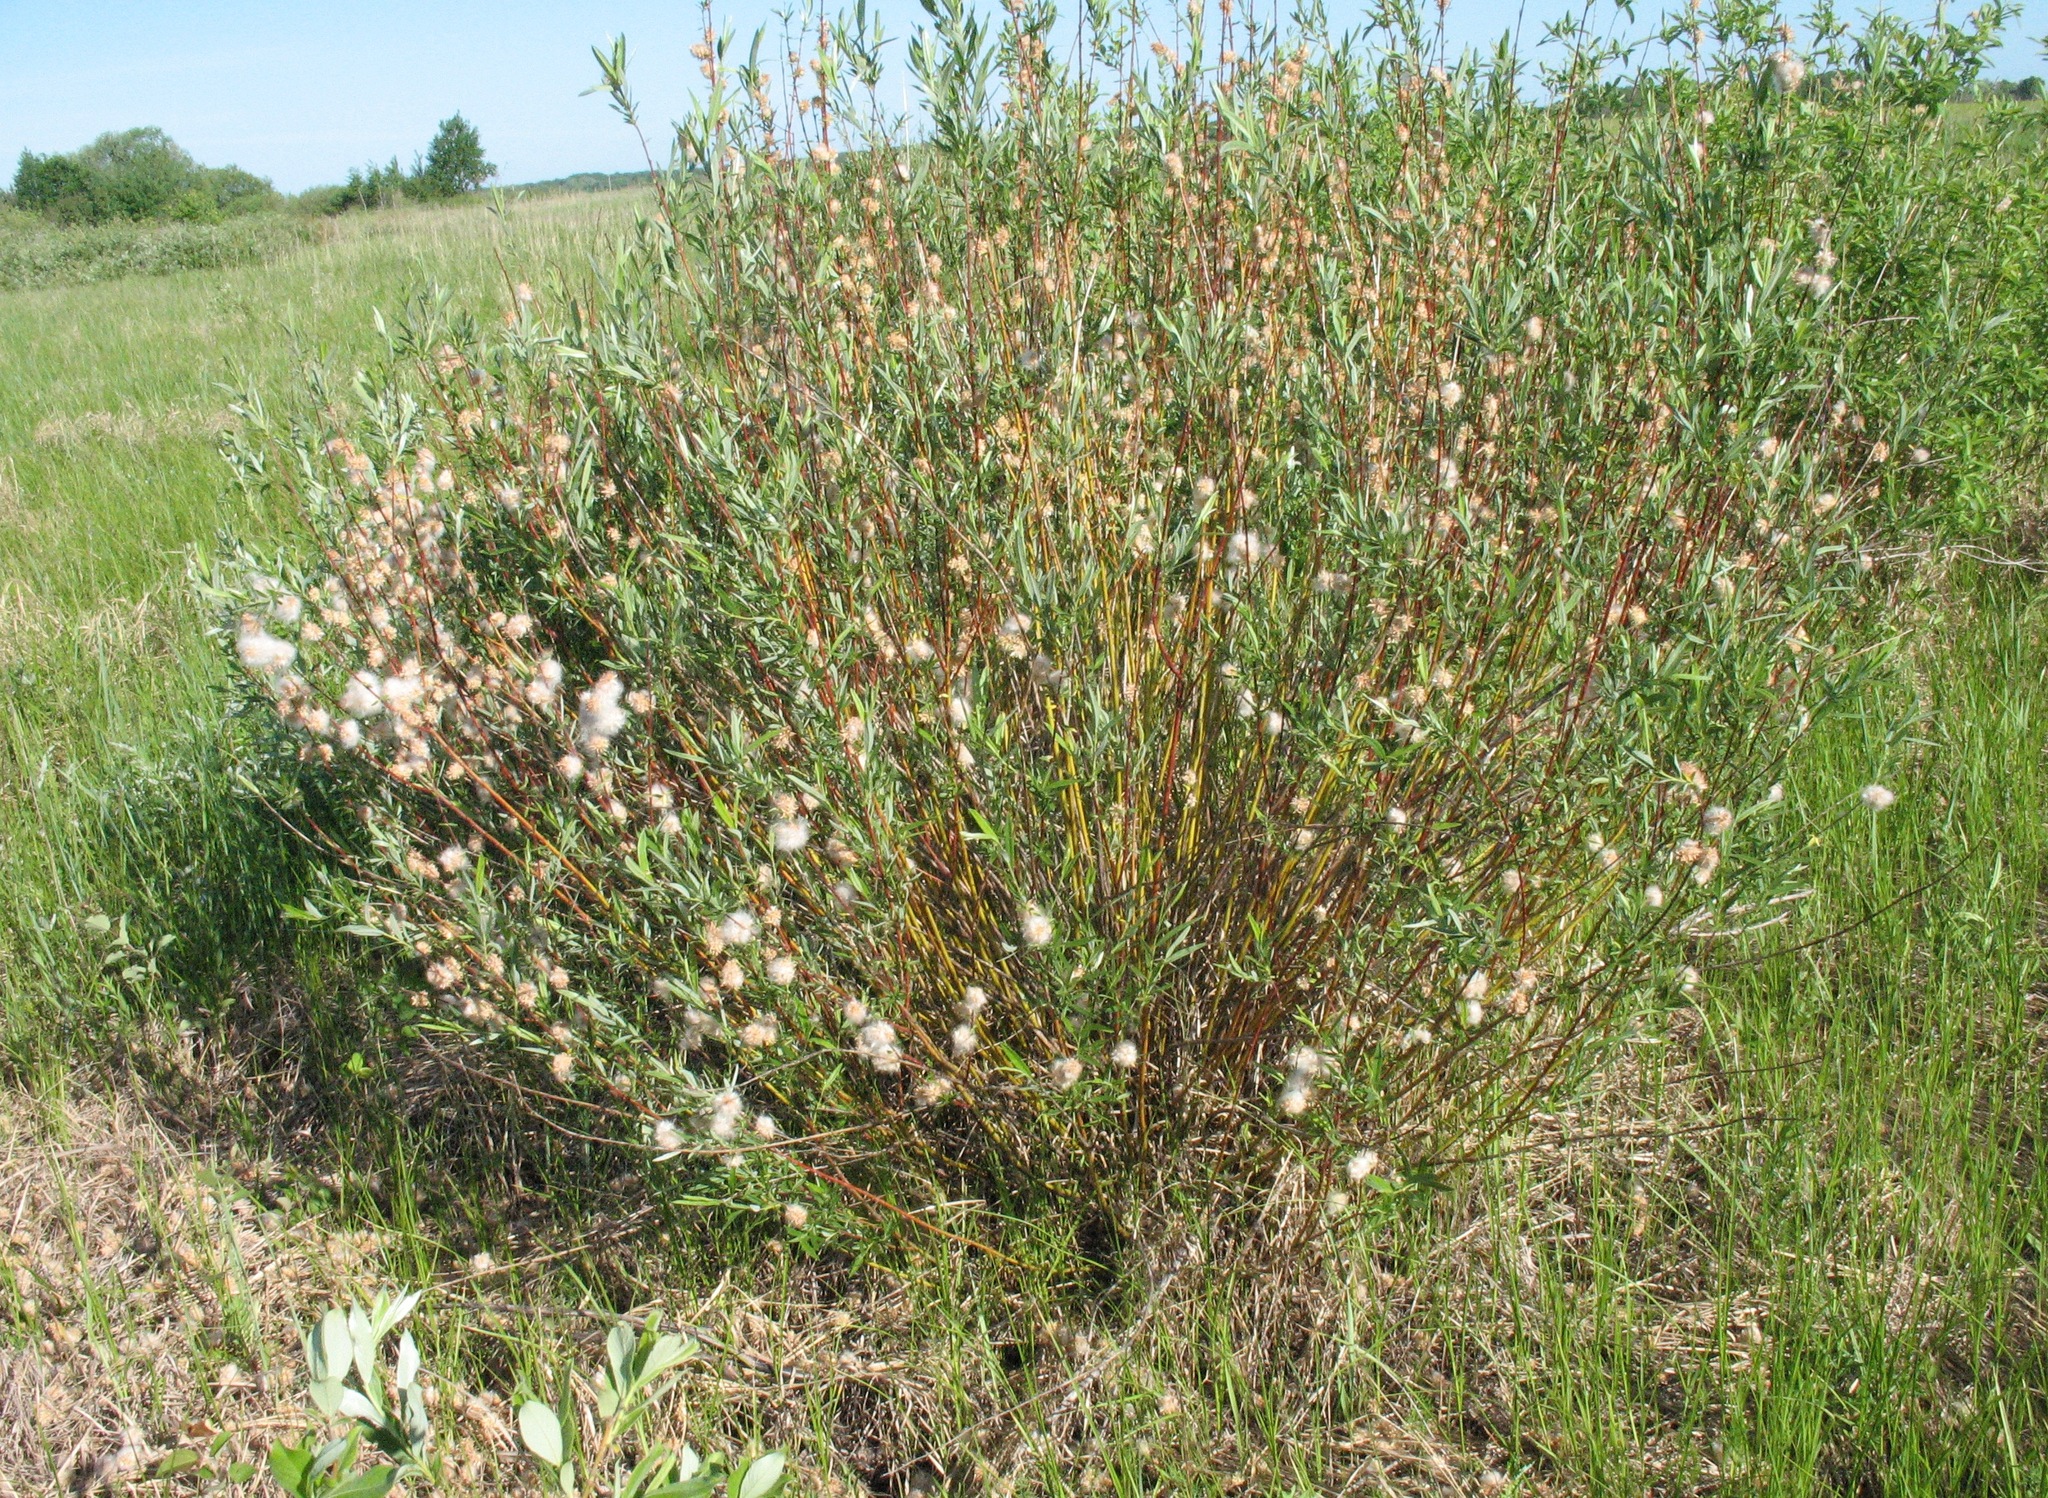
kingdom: Plantae
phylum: Tracheophyta
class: Magnoliopsida
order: Malpighiales
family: Salicaceae
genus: Salix
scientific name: Salix rosmarinifolia
